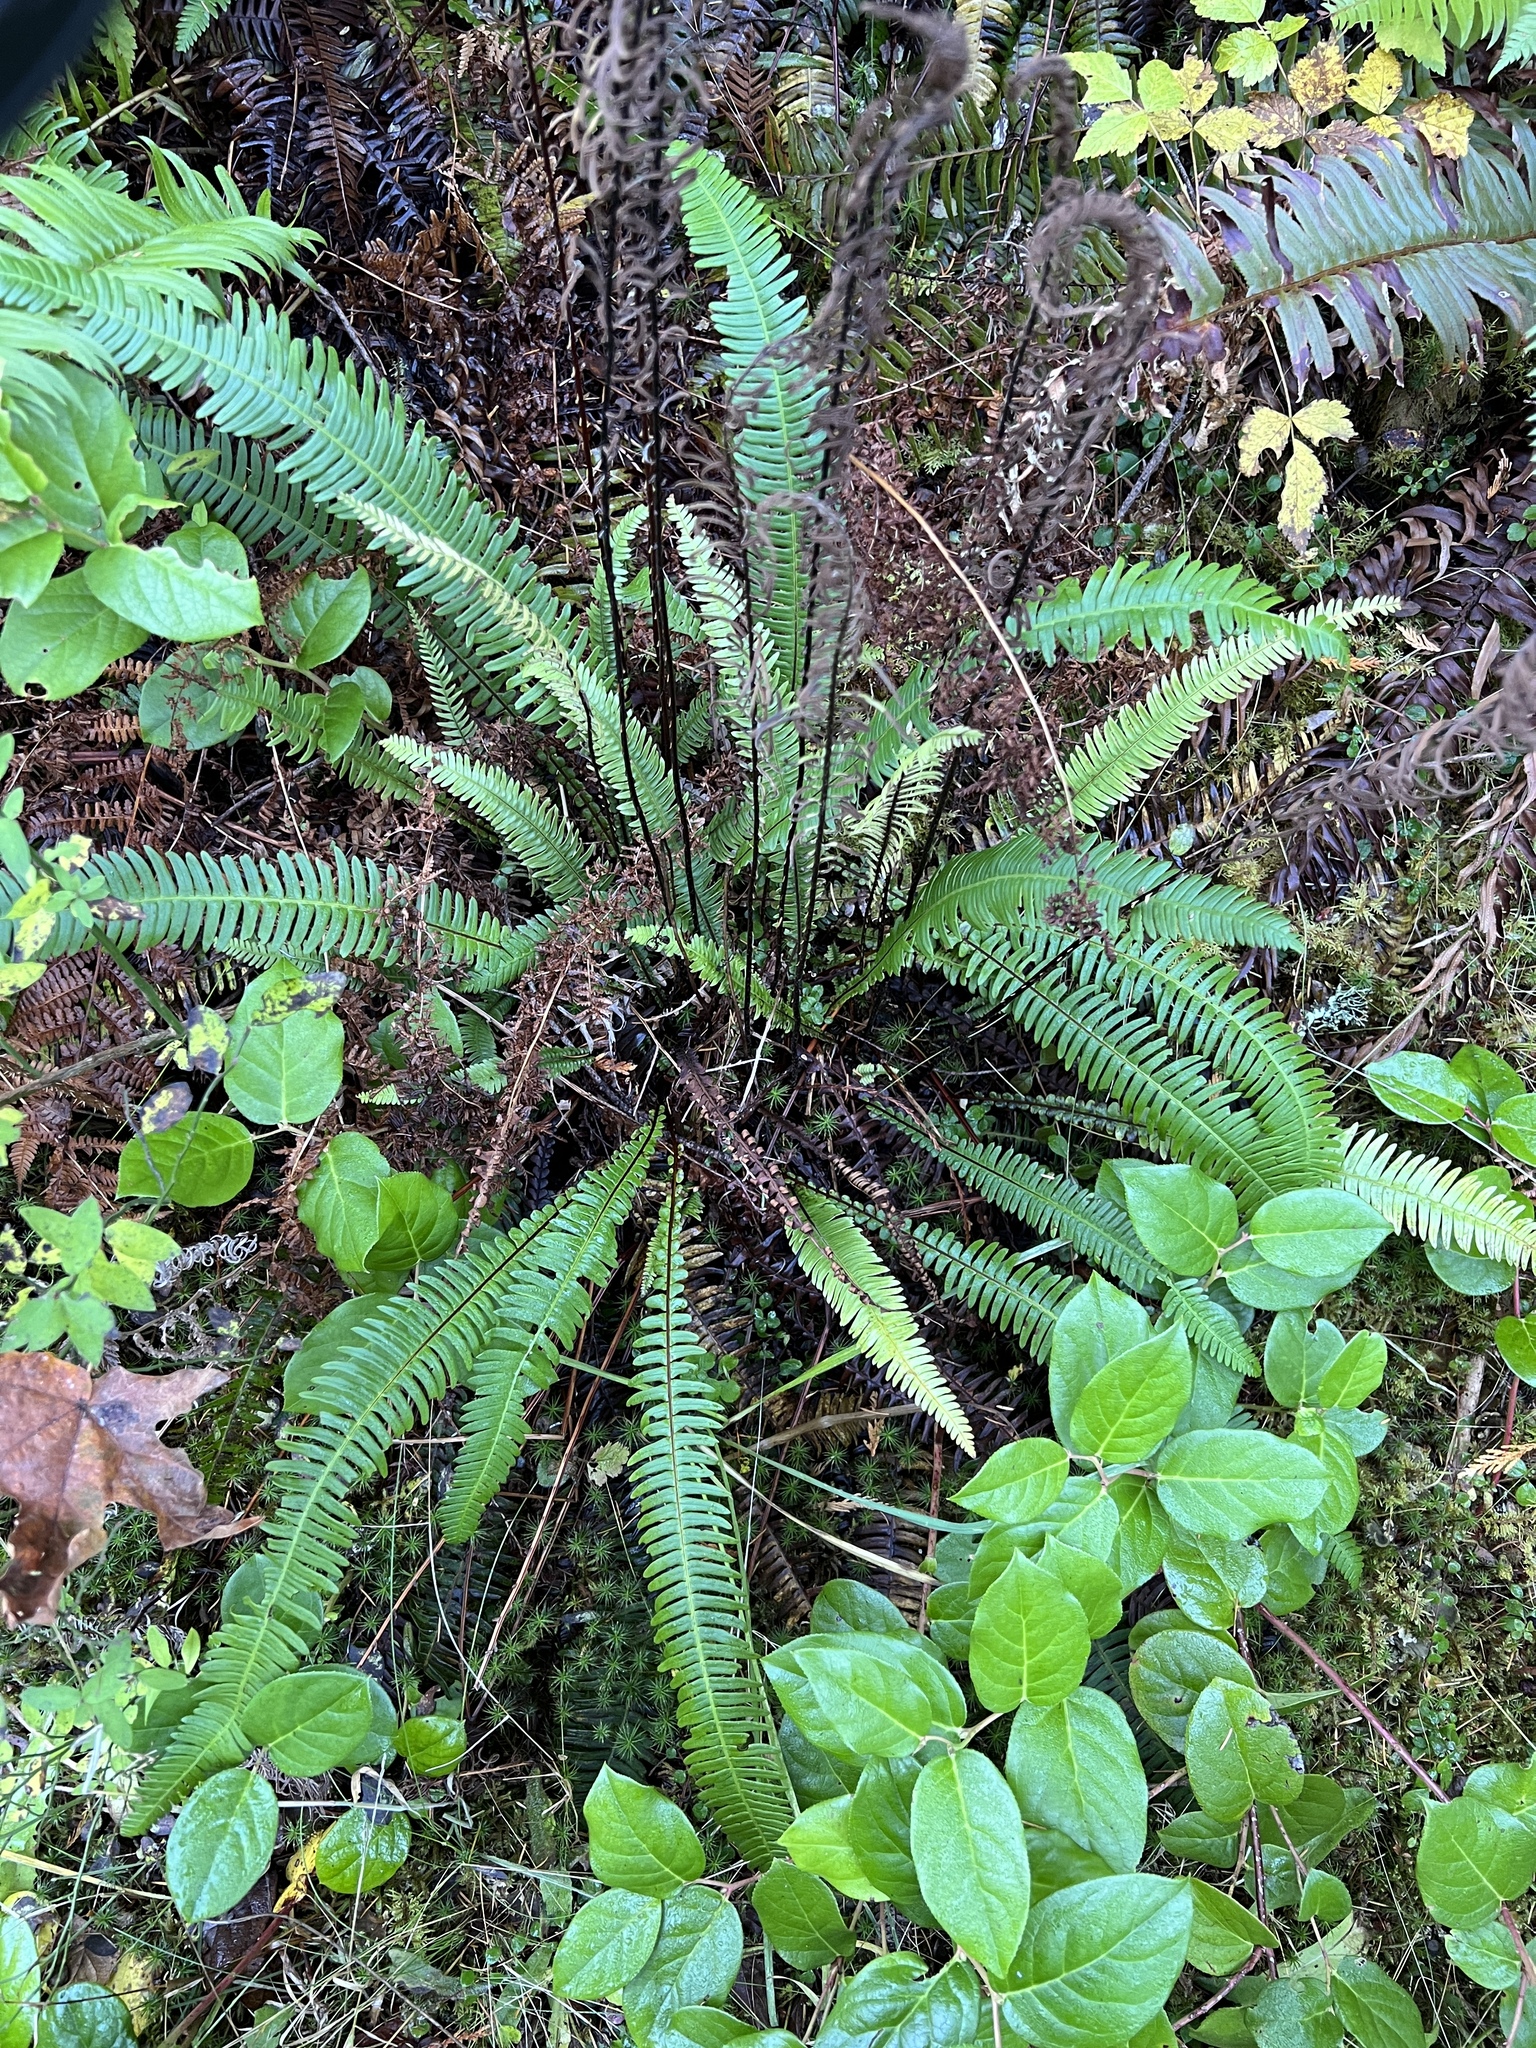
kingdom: Plantae
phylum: Tracheophyta
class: Polypodiopsida
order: Polypodiales
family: Blechnaceae
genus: Struthiopteris
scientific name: Struthiopteris spicant
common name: Deer fern
